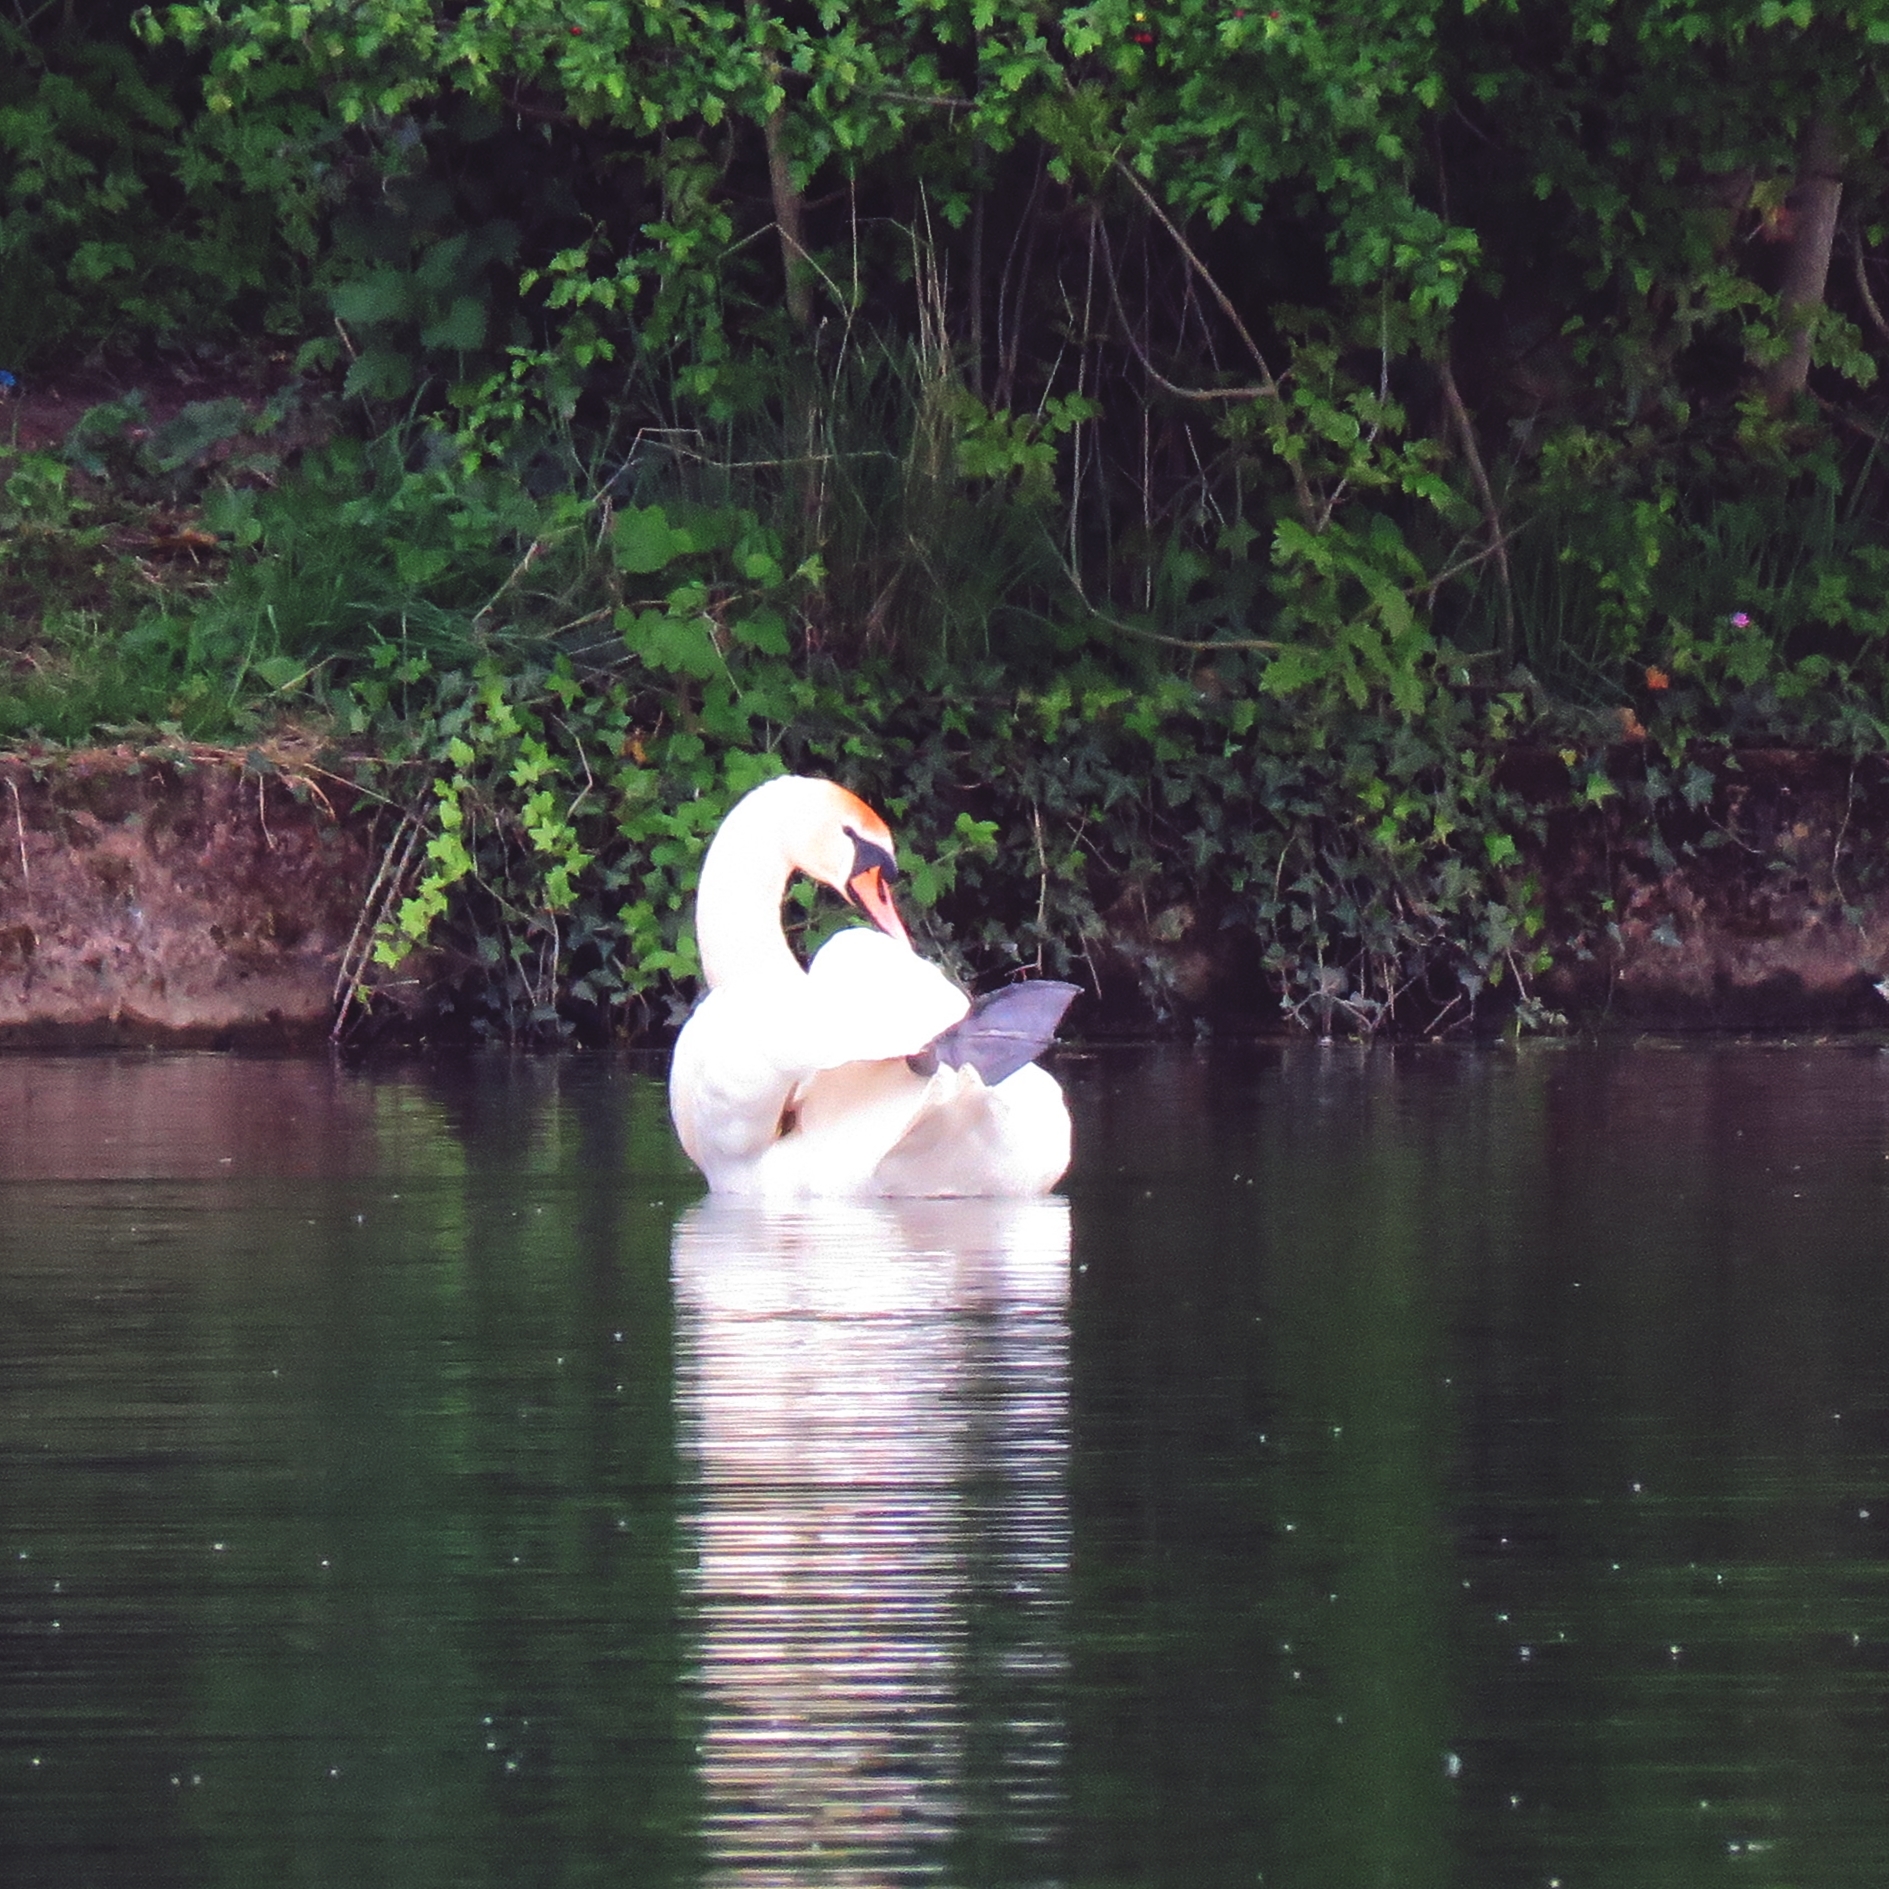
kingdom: Animalia
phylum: Chordata
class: Aves
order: Anseriformes
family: Anatidae
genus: Cygnus
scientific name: Cygnus olor
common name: Mute swan
